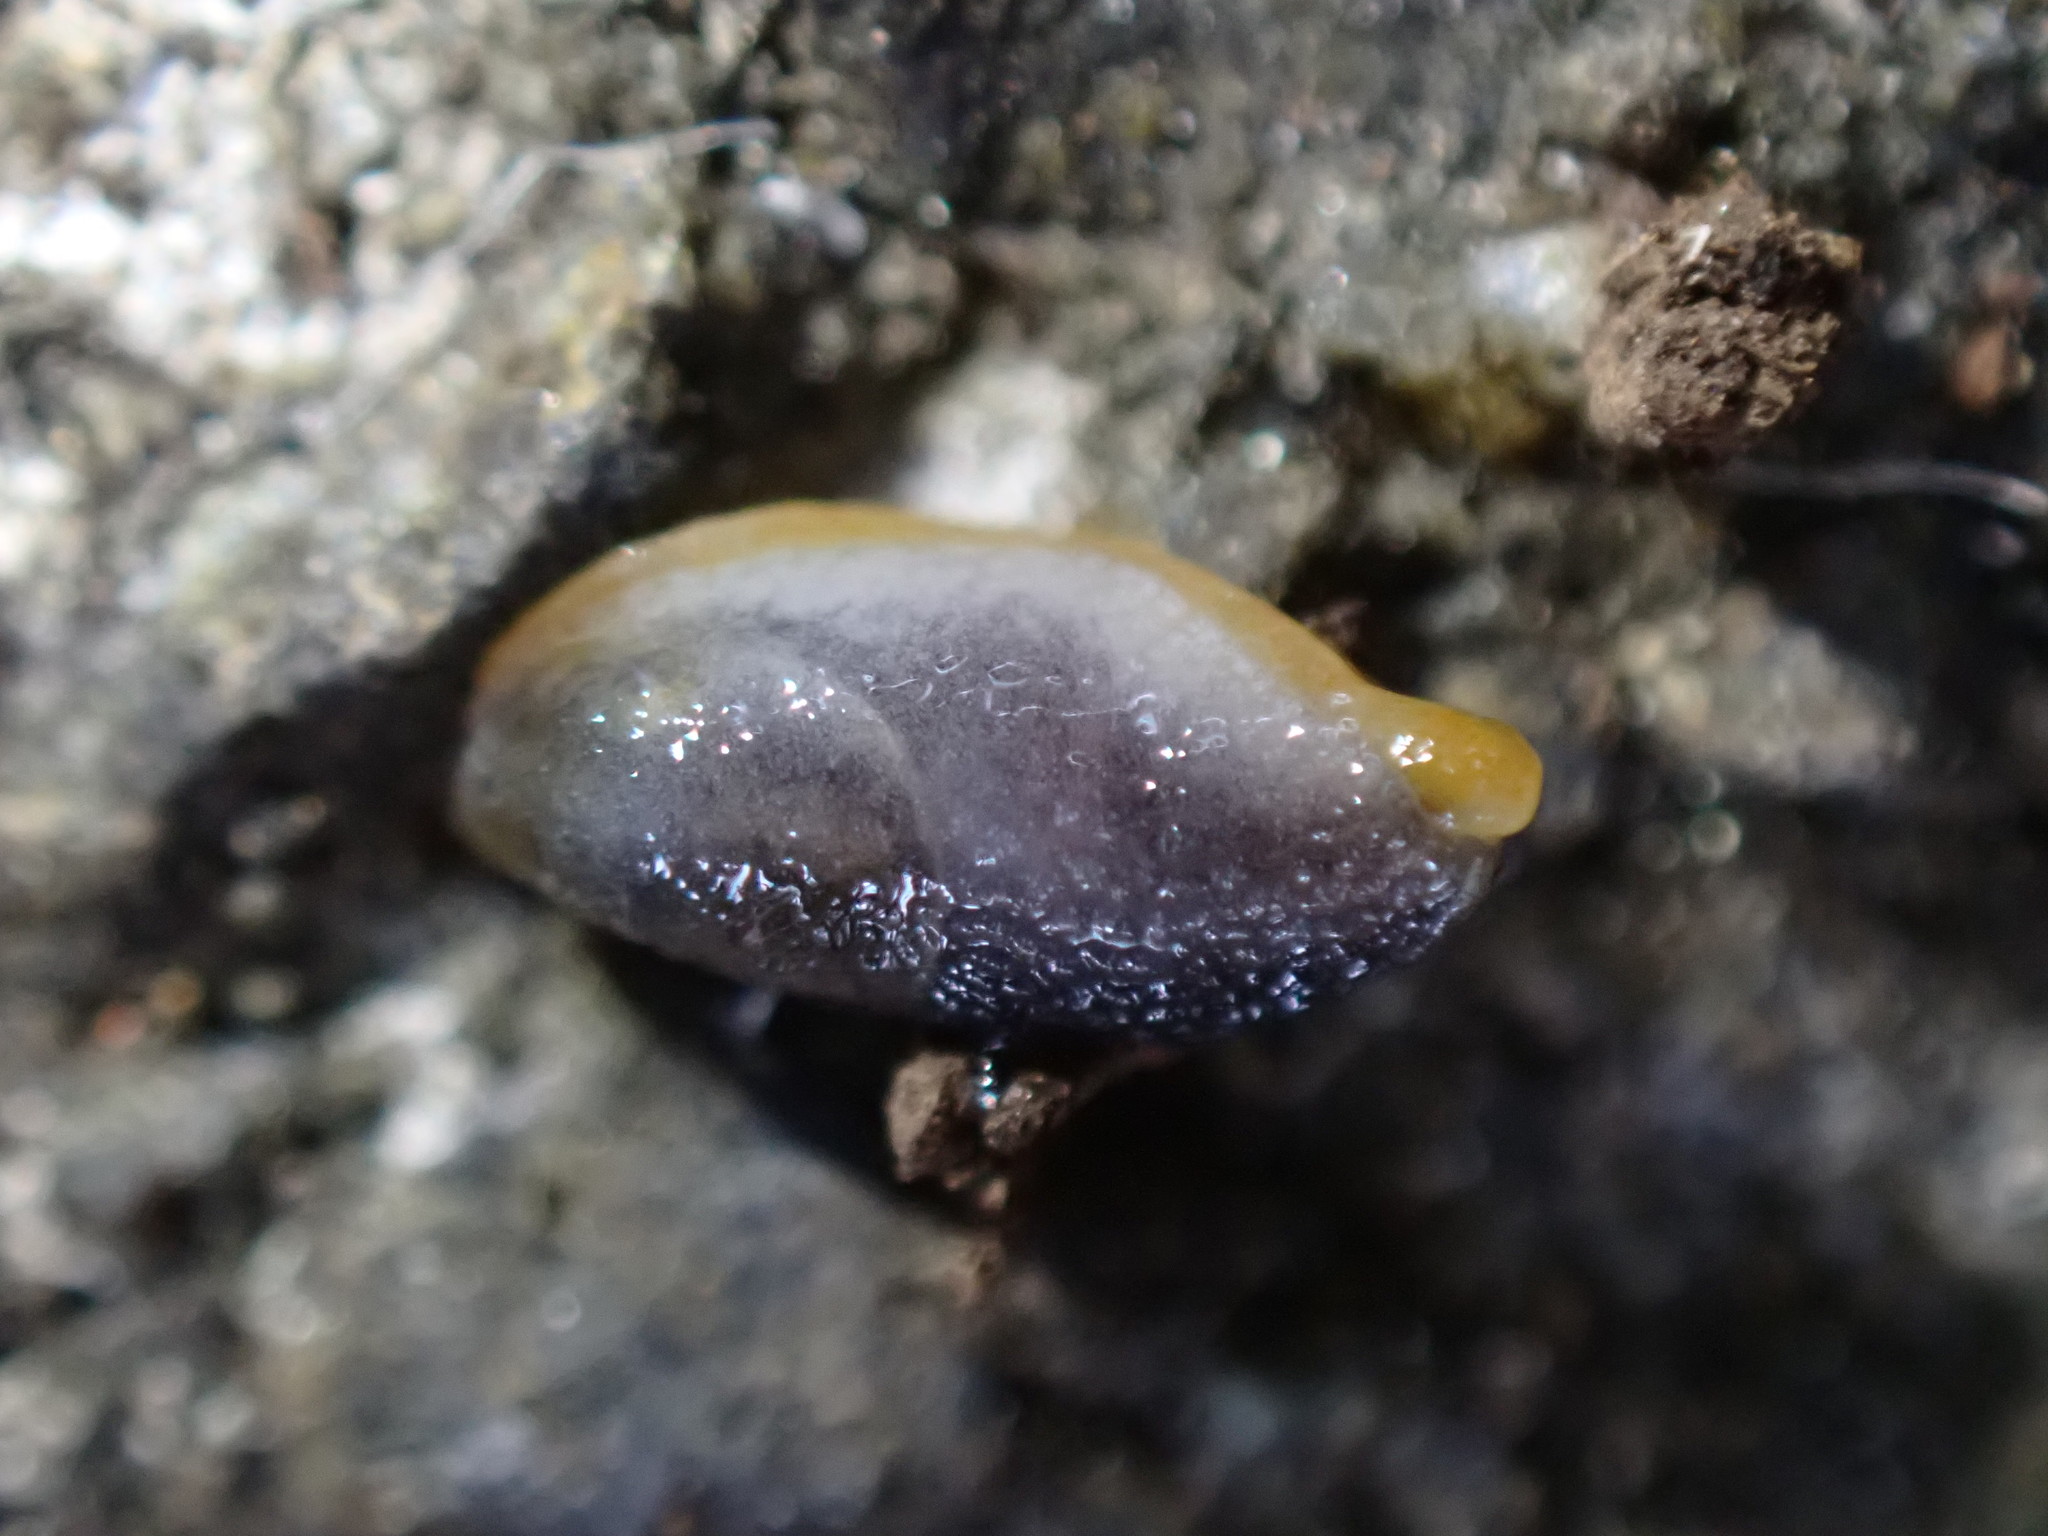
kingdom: Animalia
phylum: Mollusca
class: Gastropoda
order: Stylommatophora
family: Arionidae
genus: Kobeltia
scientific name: Kobeltia
